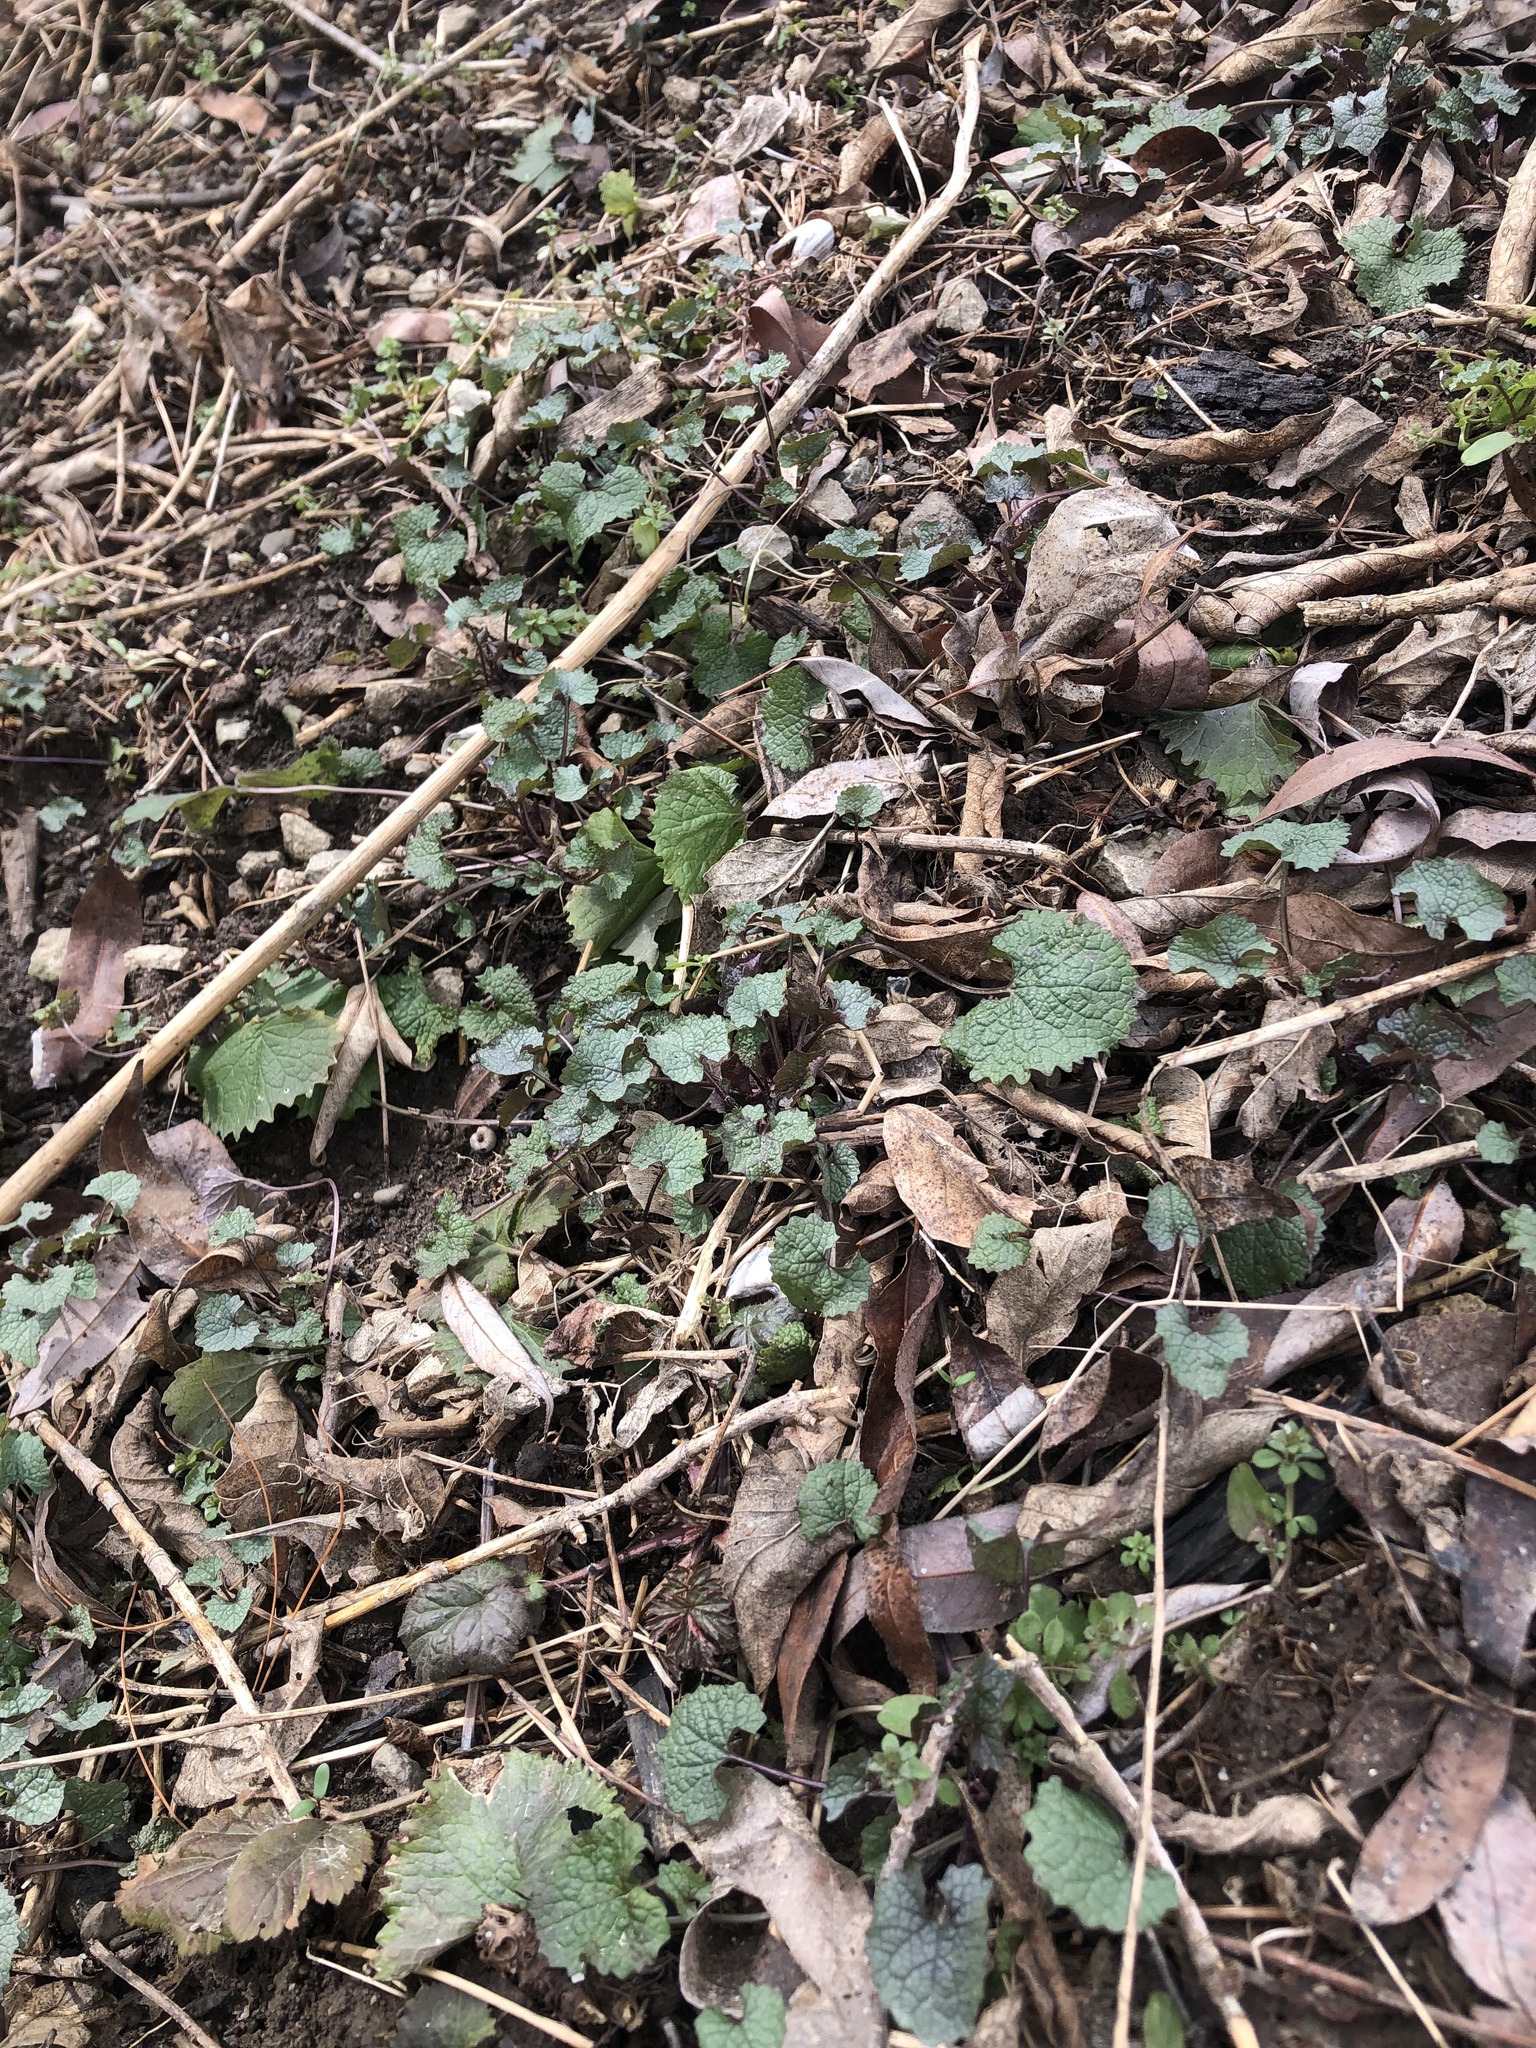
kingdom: Plantae
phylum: Tracheophyta
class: Magnoliopsida
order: Brassicales
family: Brassicaceae
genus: Alliaria
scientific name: Alliaria petiolata
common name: Garlic mustard
